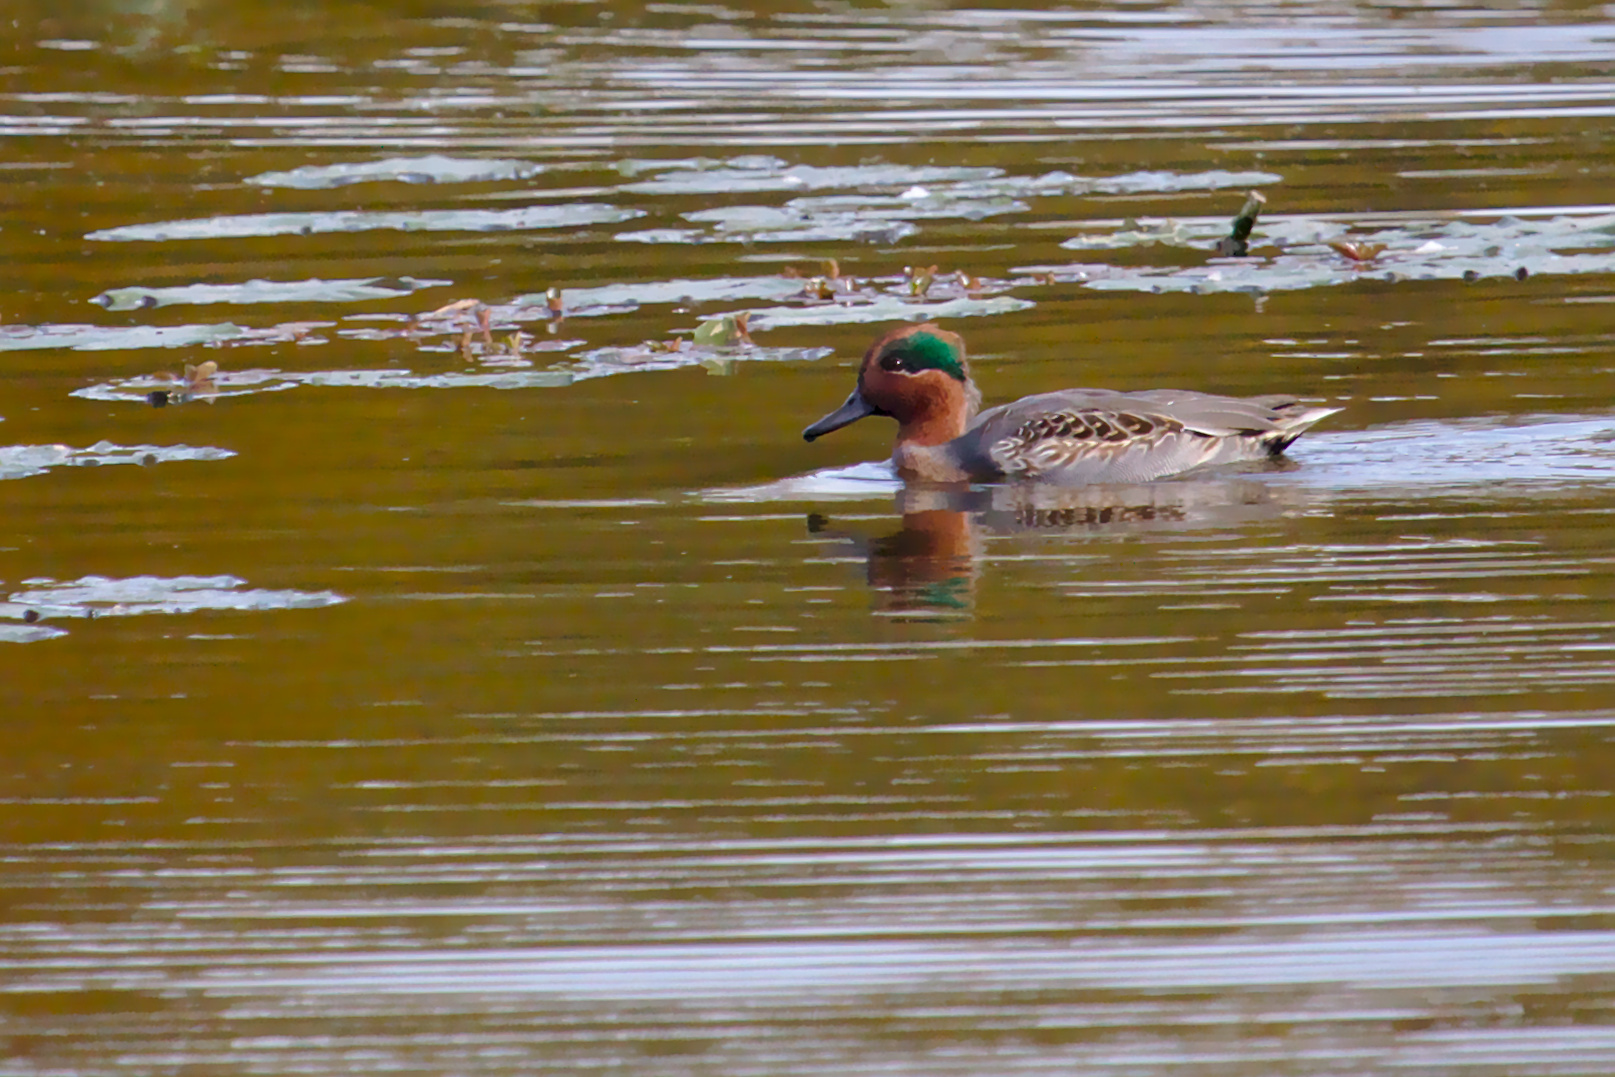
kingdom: Animalia
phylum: Chordata
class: Aves
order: Anseriformes
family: Anatidae
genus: Anas
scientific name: Anas carolinensis
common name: Green-winged teal
